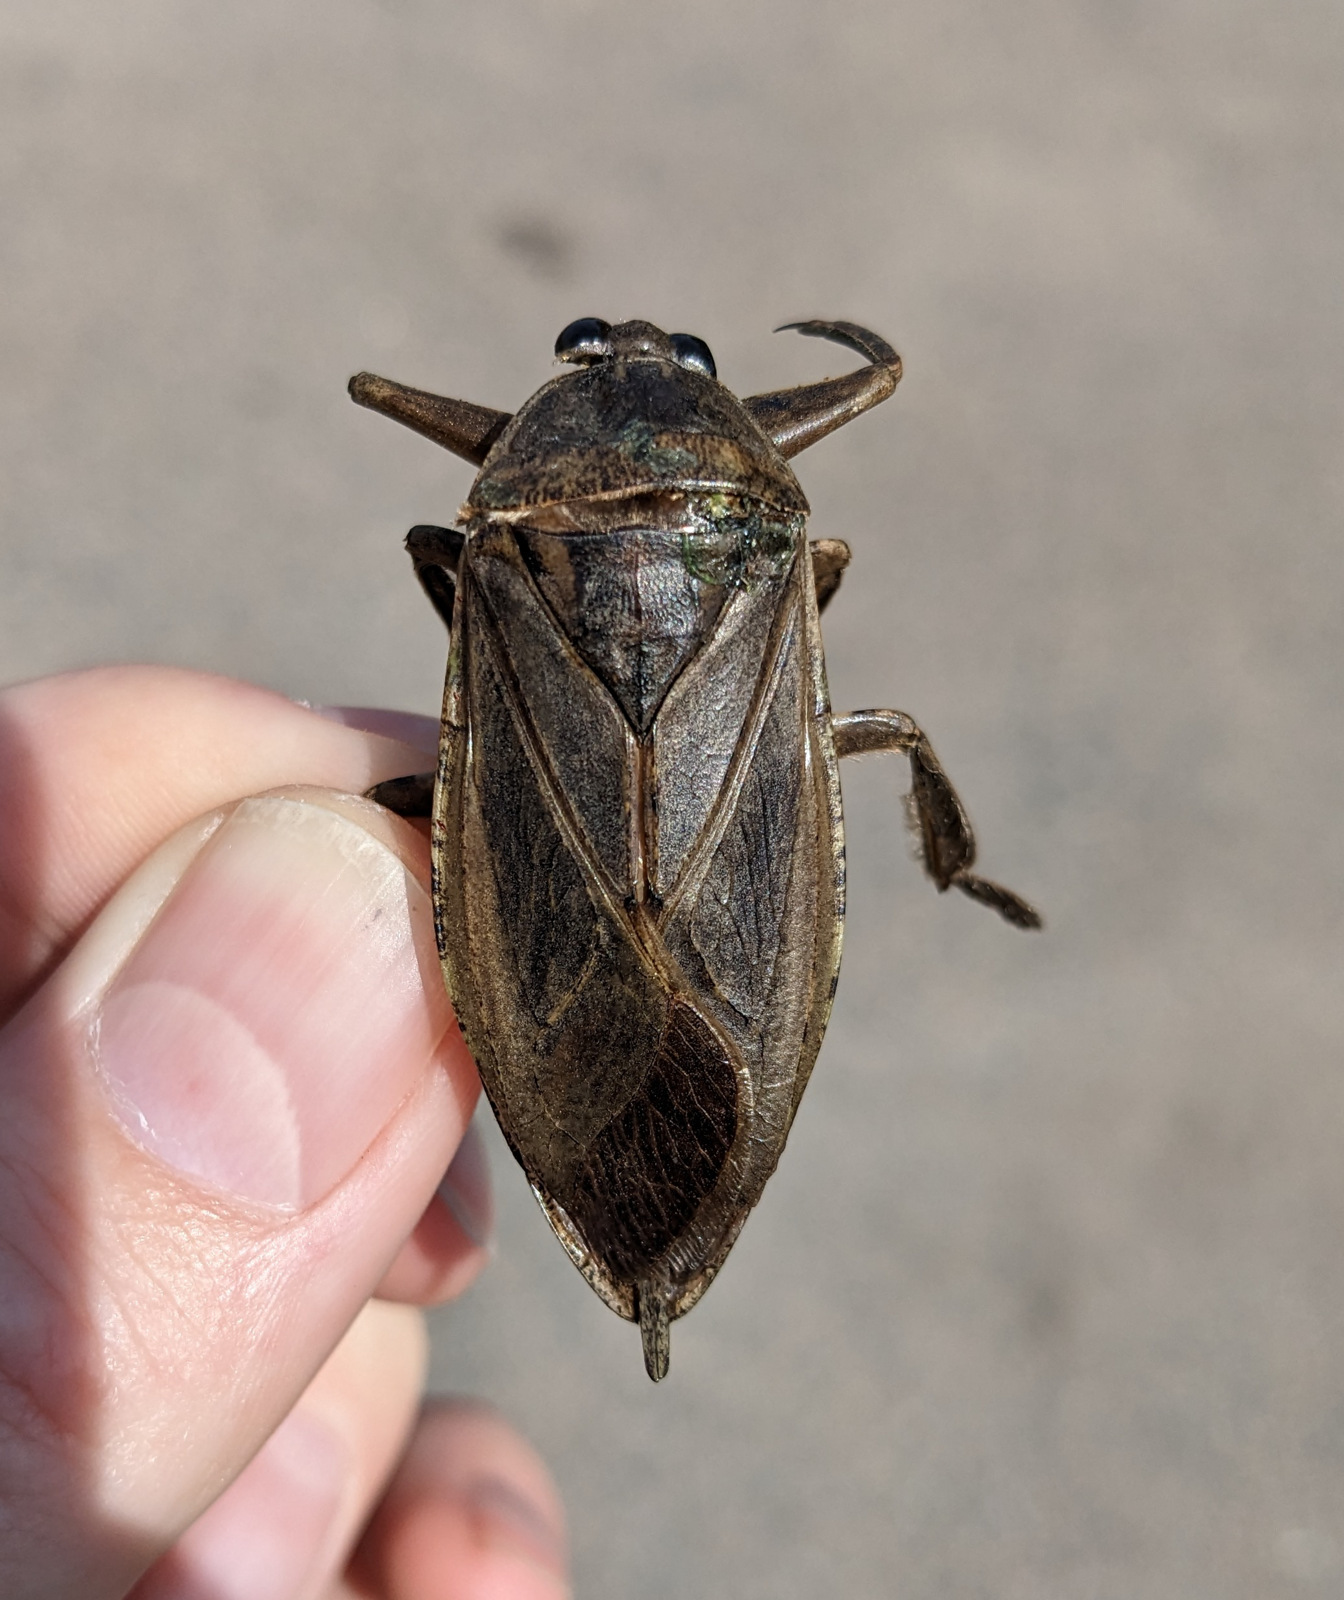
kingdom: Animalia
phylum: Arthropoda
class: Insecta
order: Hemiptera
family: Belostomatidae
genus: Lethocerus
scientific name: Lethocerus americanus
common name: Giant water bug
